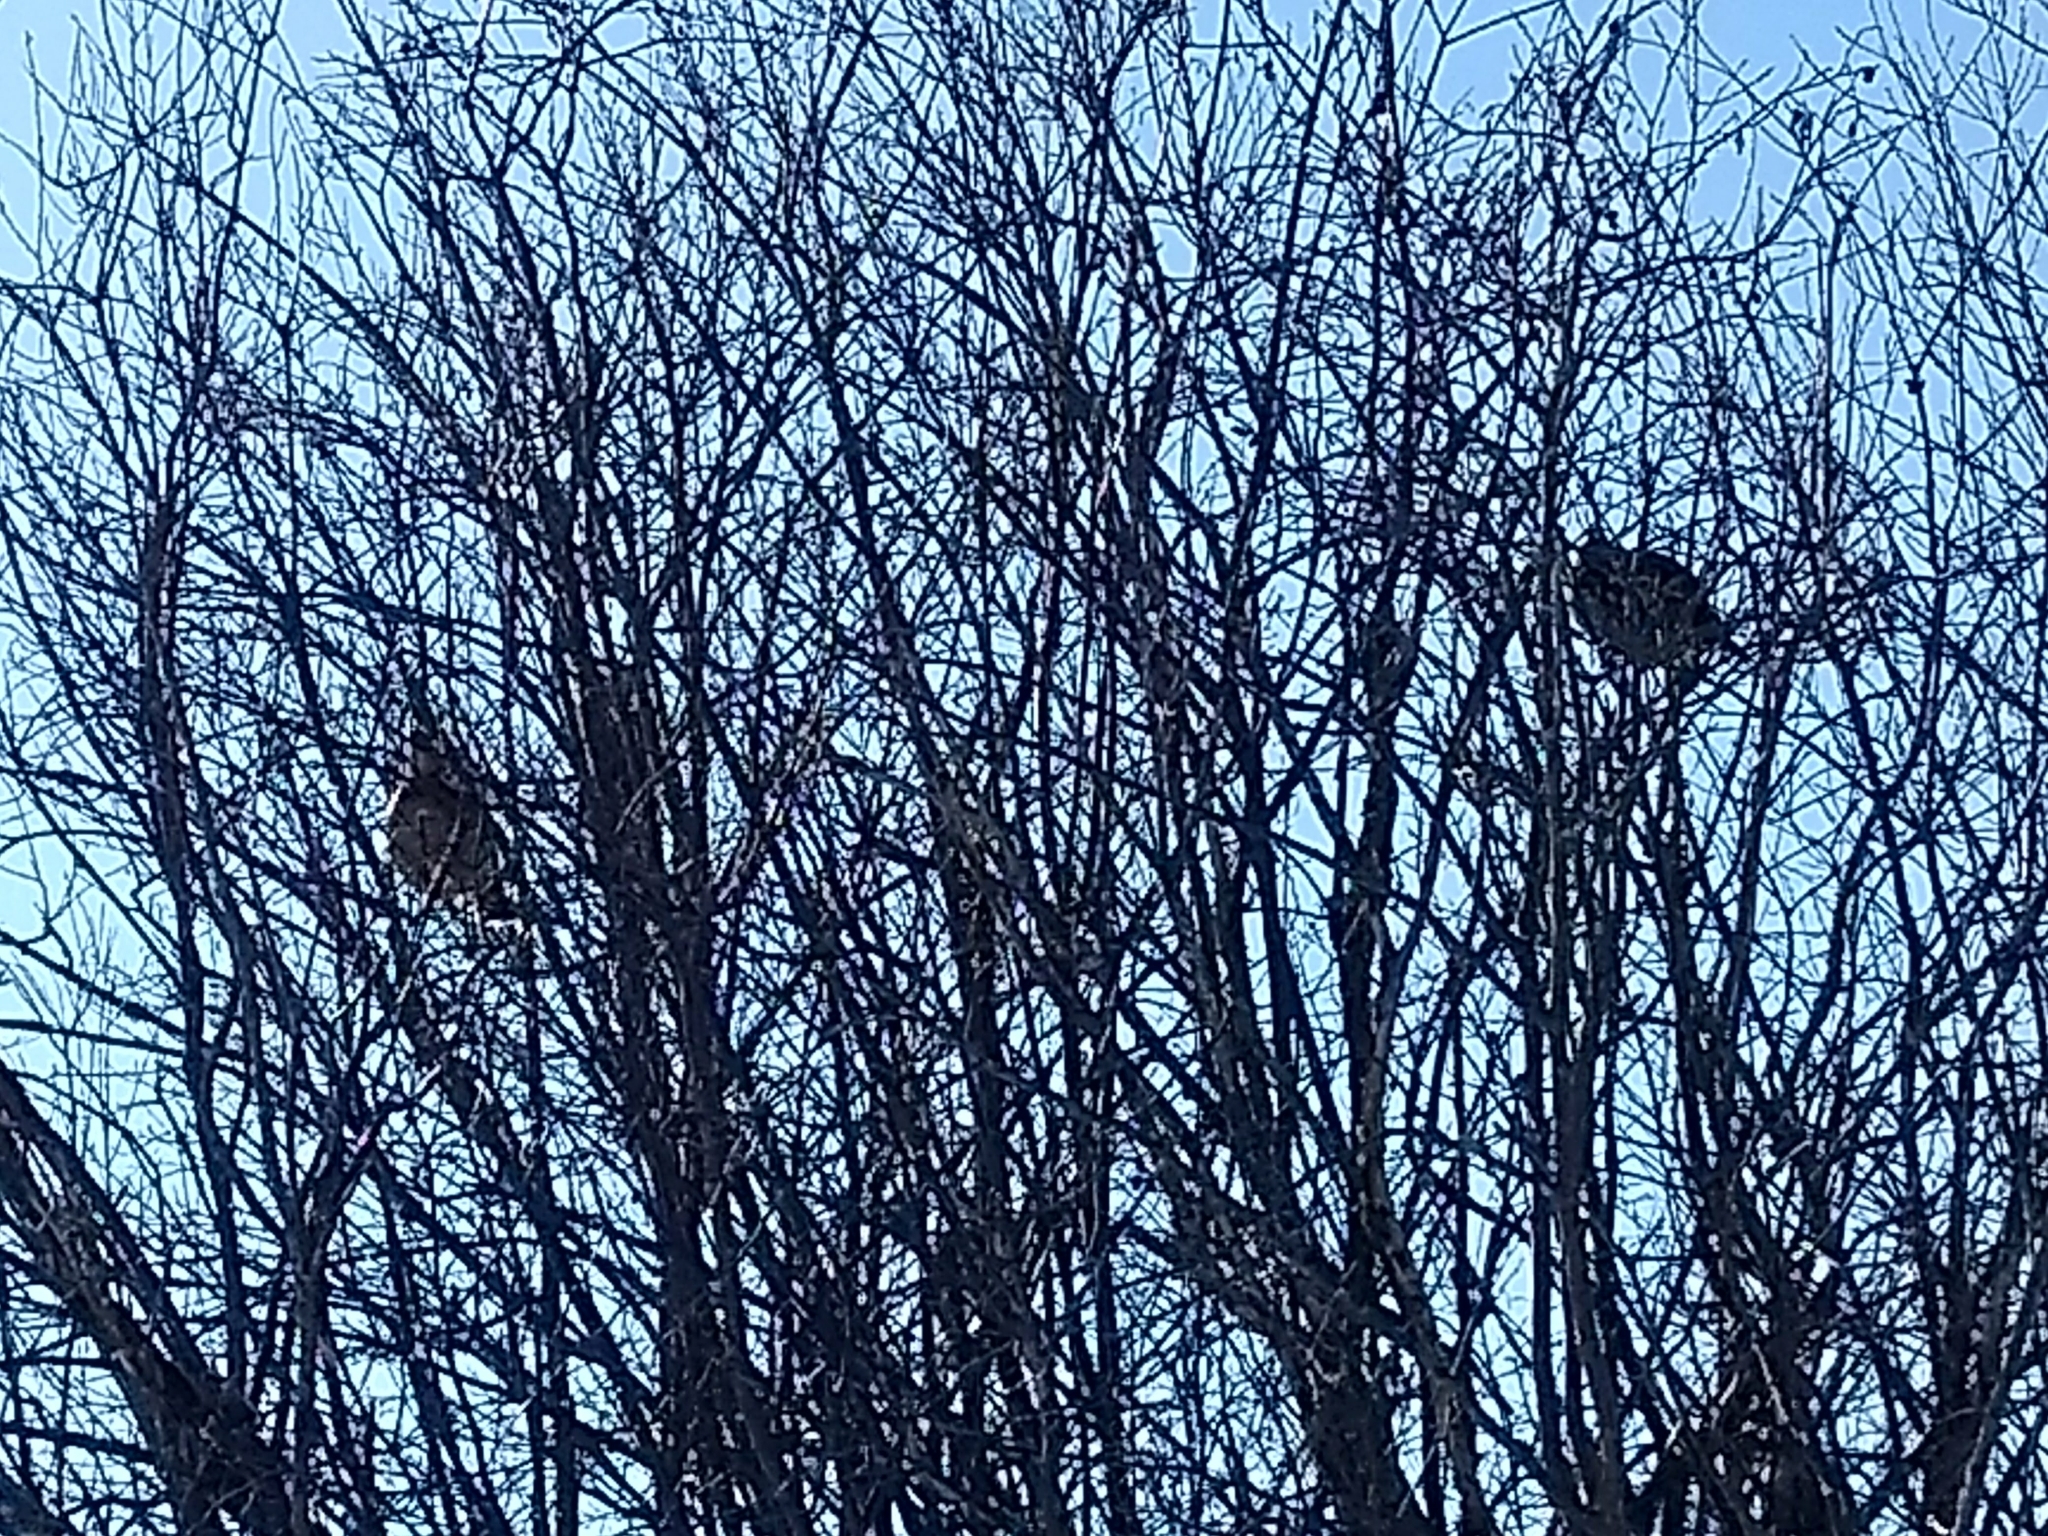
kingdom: Animalia
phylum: Chordata
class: Aves
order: Galliformes
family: Phasianidae
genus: Bonasa
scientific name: Bonasa umbellus
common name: Ruffed grouse
